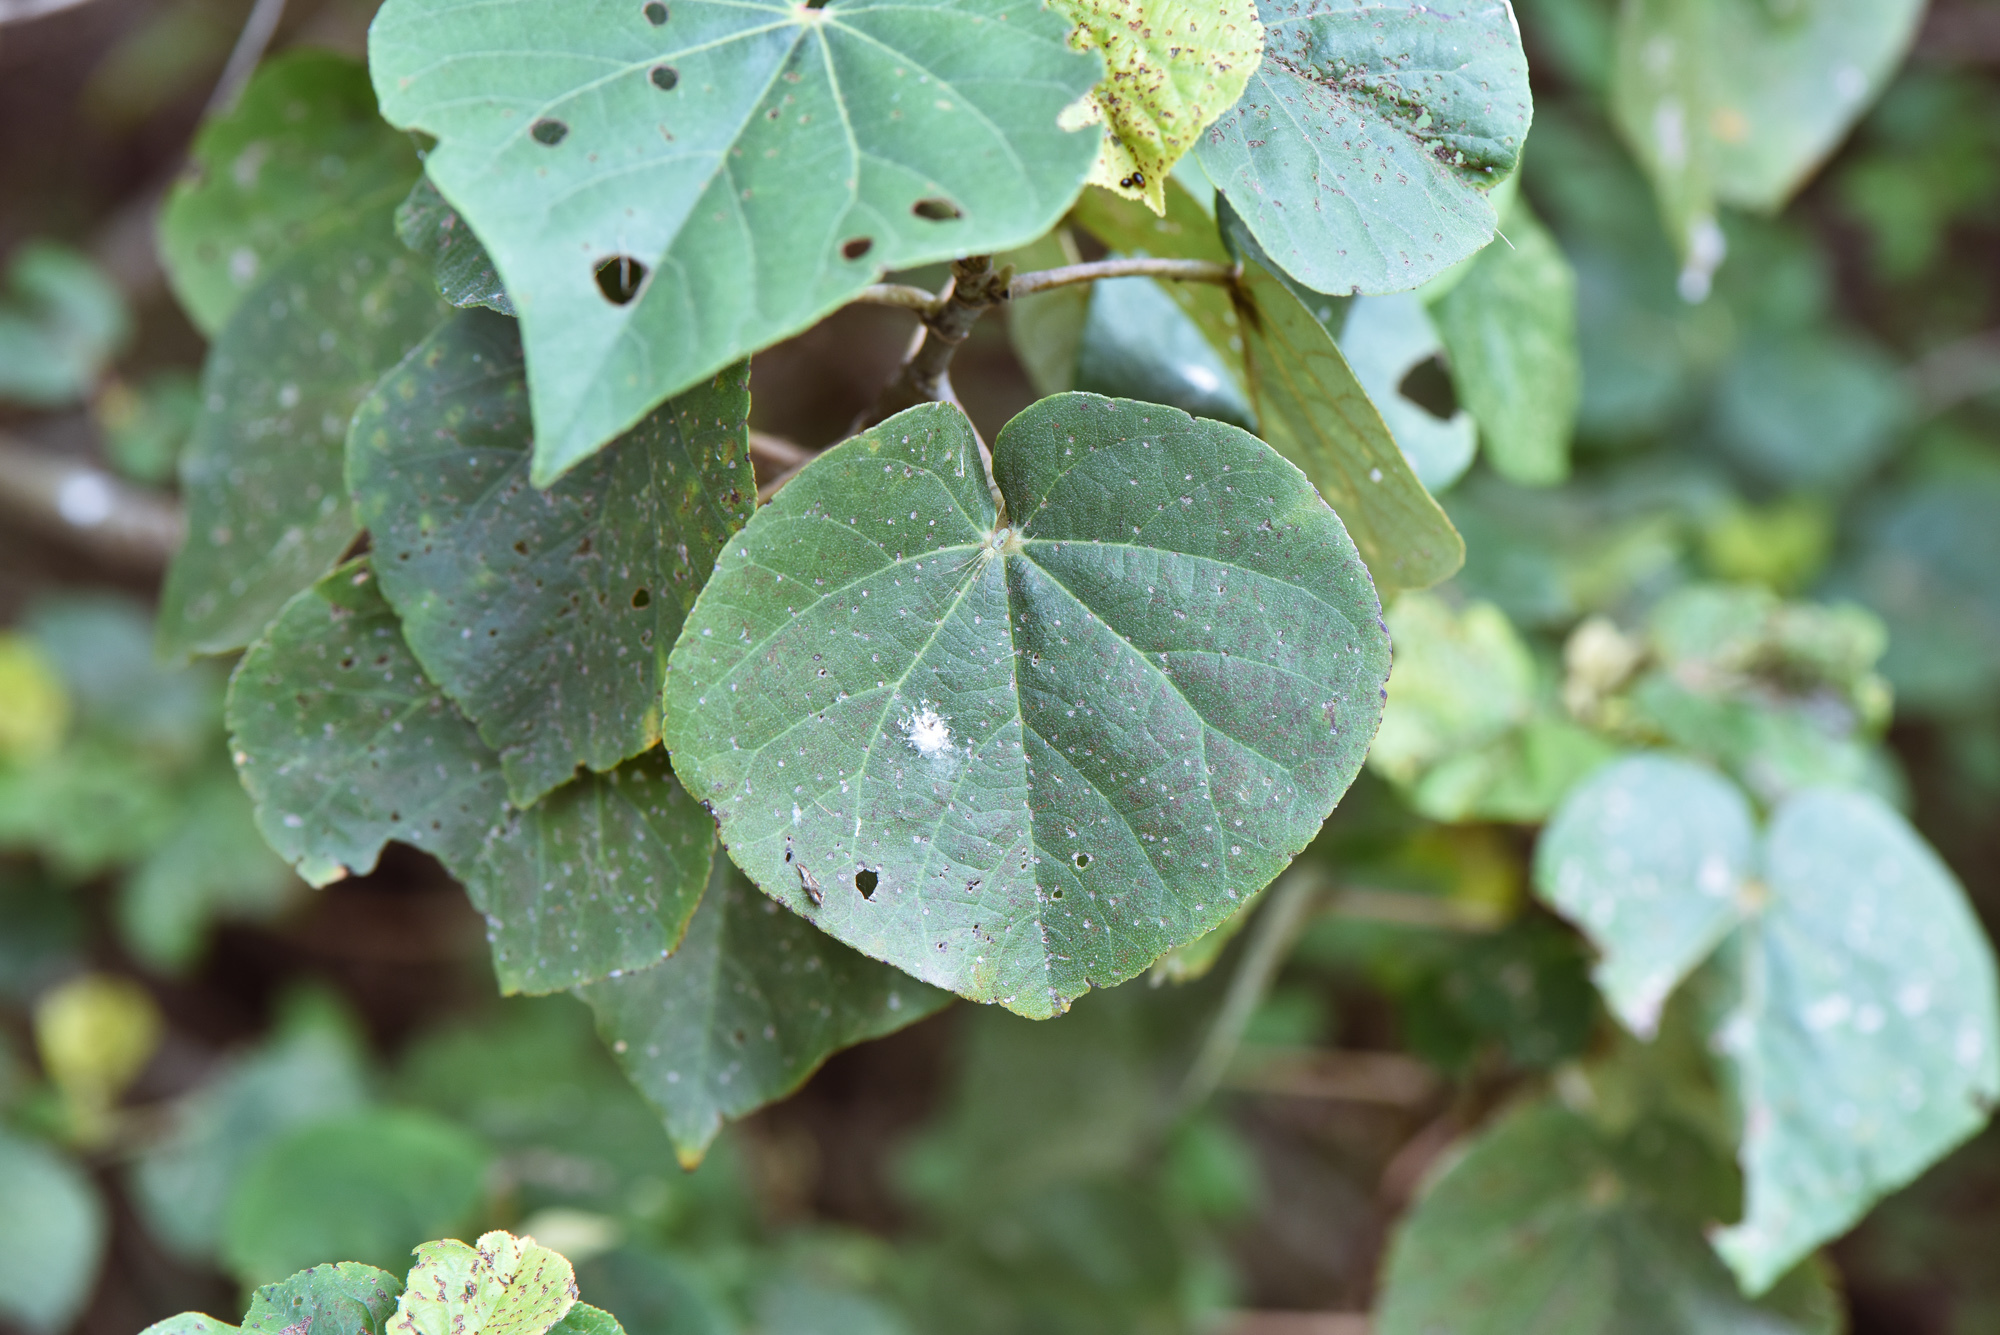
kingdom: Plantae
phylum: Tracheophyta
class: Magnoliopsida
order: Malvales
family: Malvaceae
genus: Talipariti
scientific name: Talipariti tiliaceum
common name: Sea hibiscus
